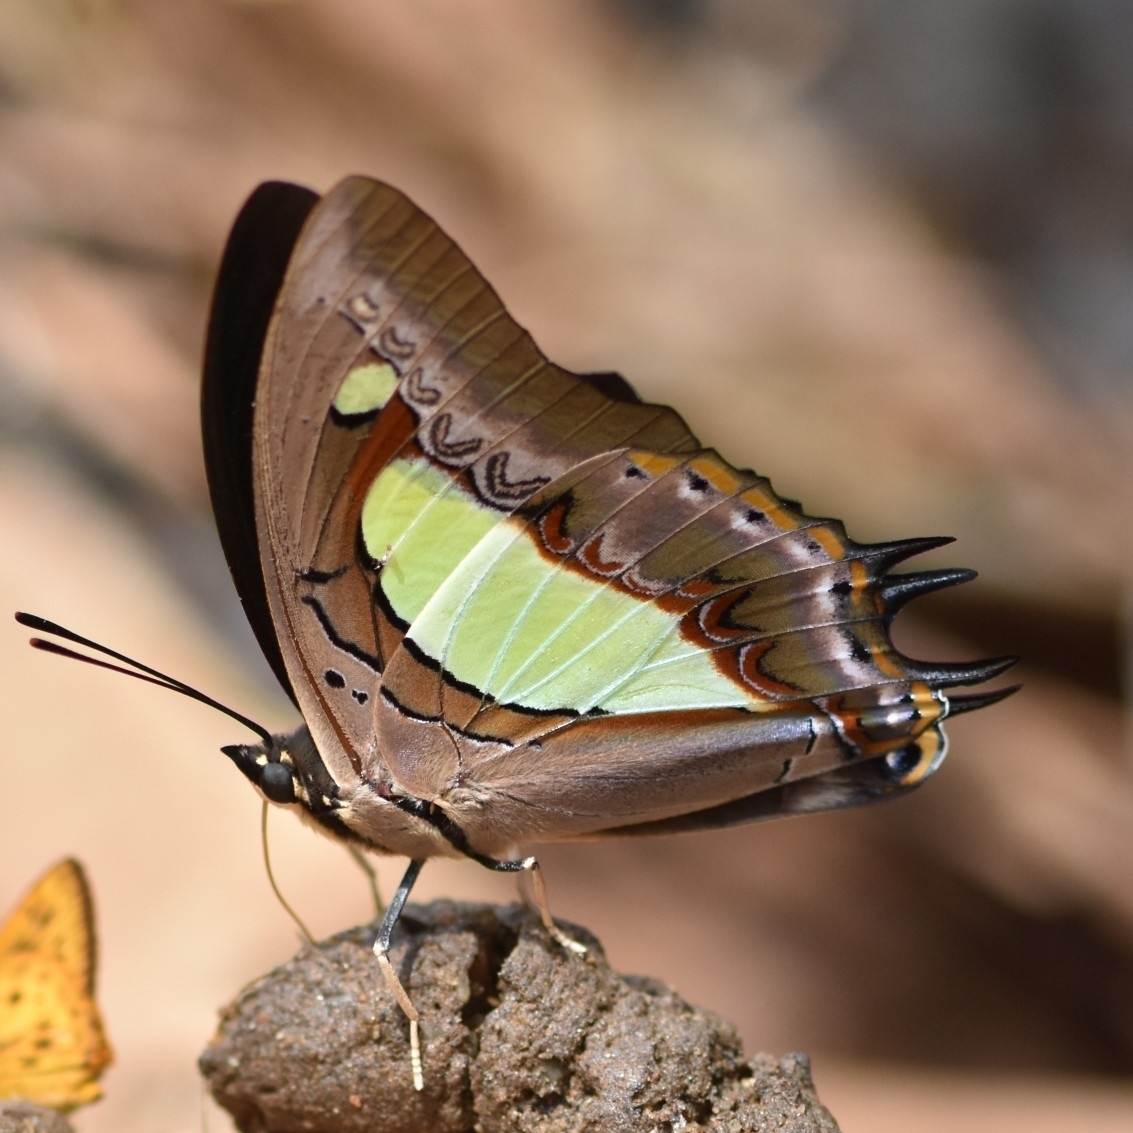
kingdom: Animalia
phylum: Arthropoda
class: Insecta
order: Lepidoptera
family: Nymphalidae
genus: Polyura
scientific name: Polyura
